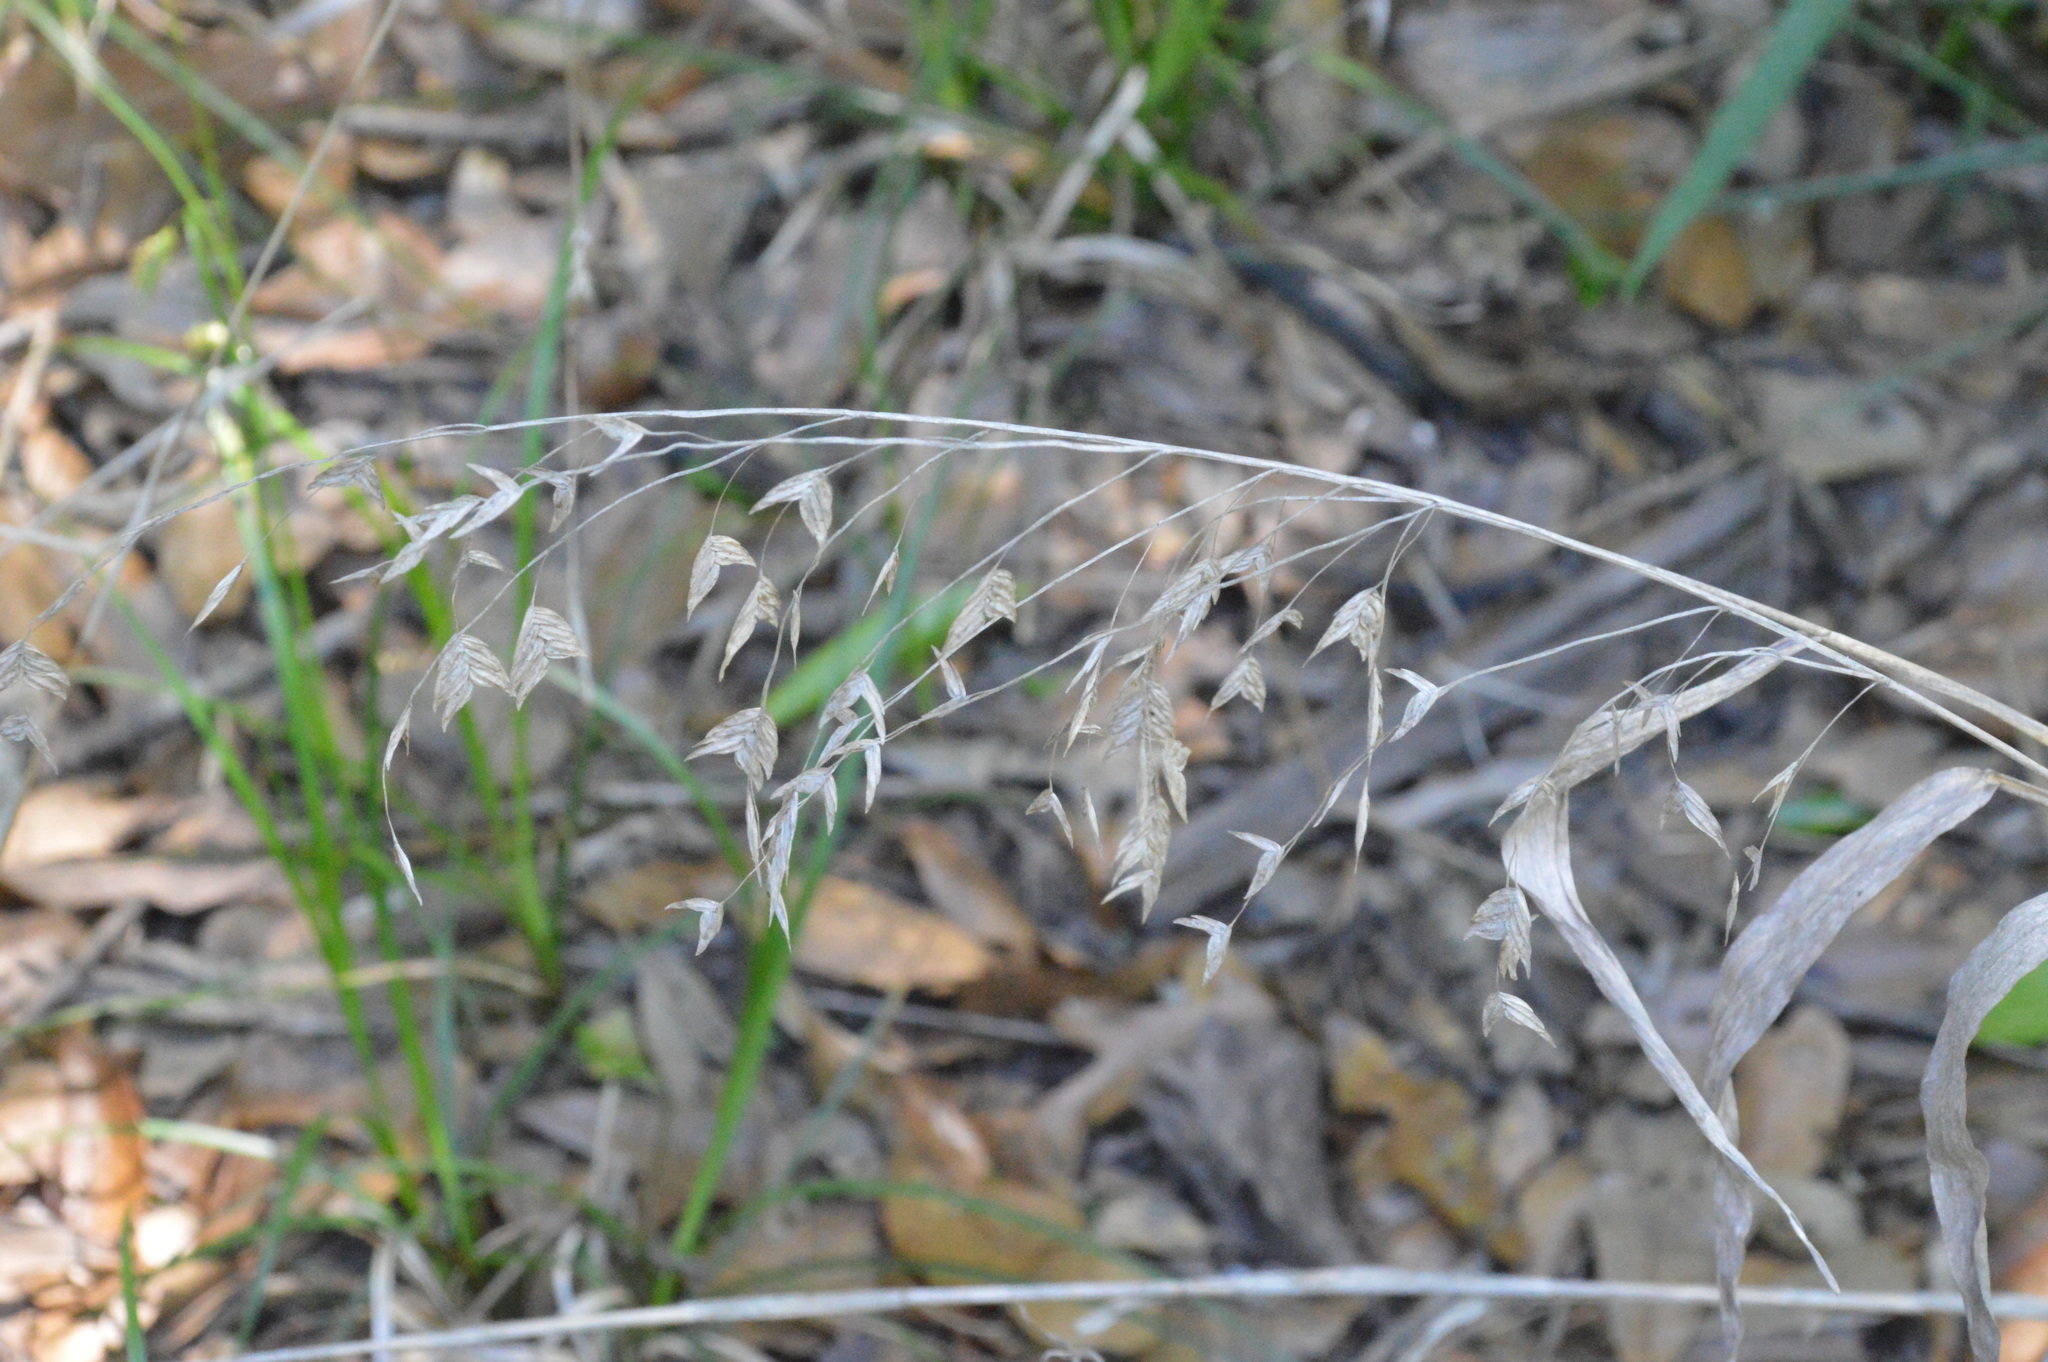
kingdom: Plantae
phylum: Tracheophyta
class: Liliopsida
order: Poales
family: Poaceae
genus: Chasmanthium
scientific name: Chasmanthium latifolium
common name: Broad-leaved chasmanthium
